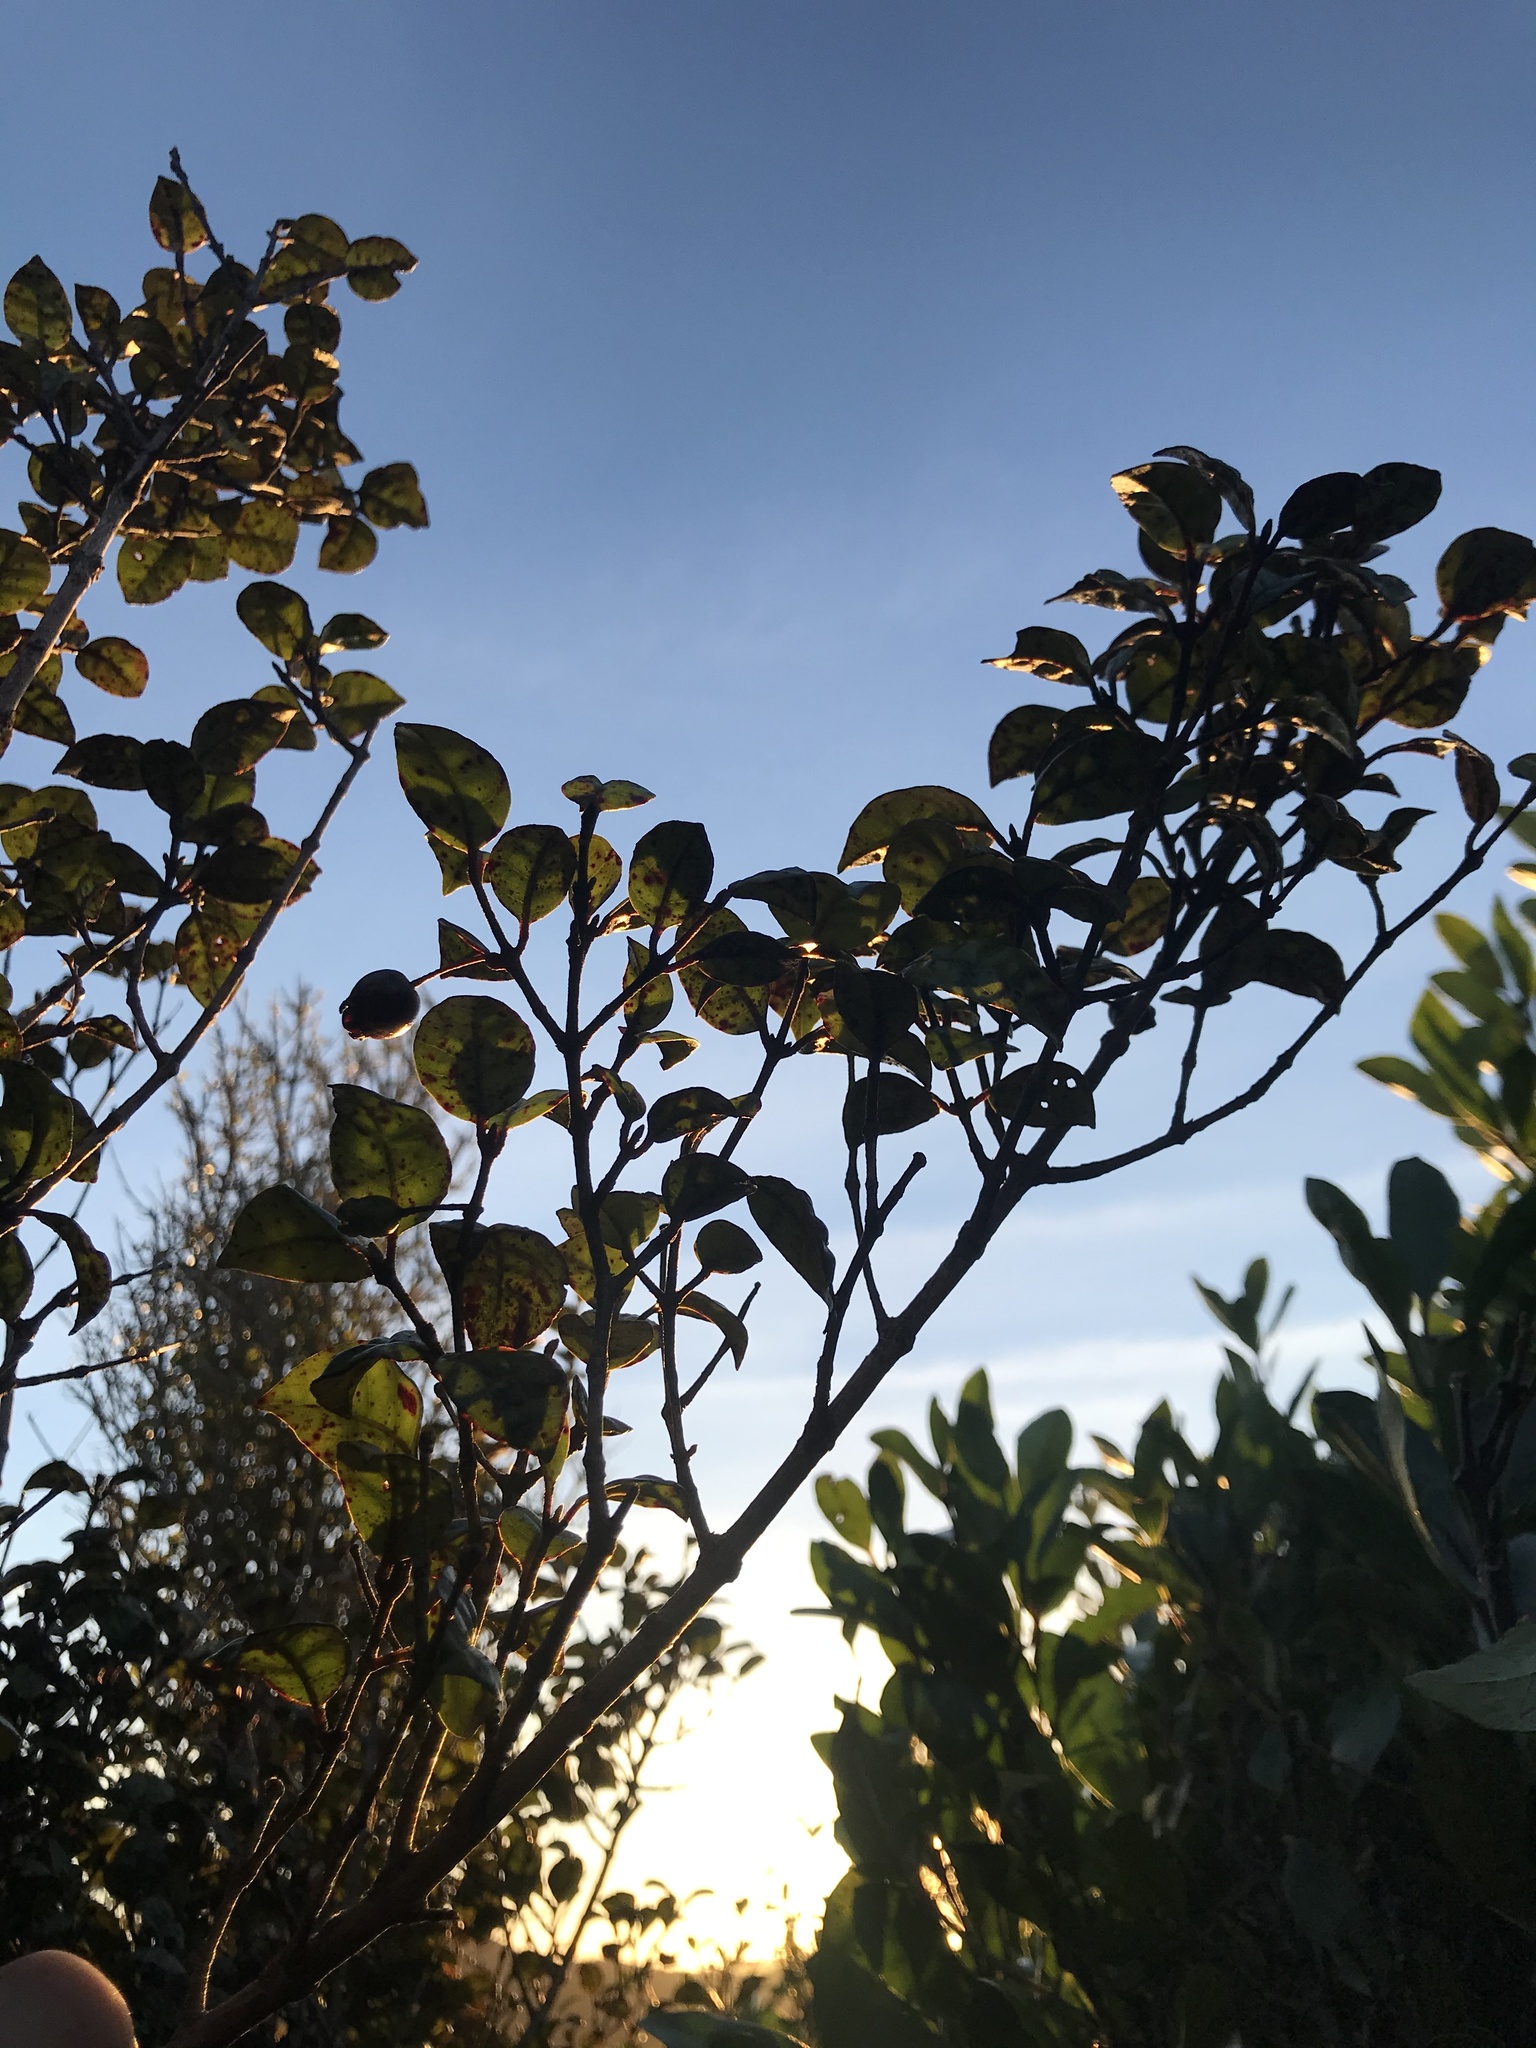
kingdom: Plantae
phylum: Tracheophyta
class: Magnoliopsida
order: Myrtales
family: Myrtaceae
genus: Lophomyrtus
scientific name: Lophomyrtus bullata
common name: Rama rama
